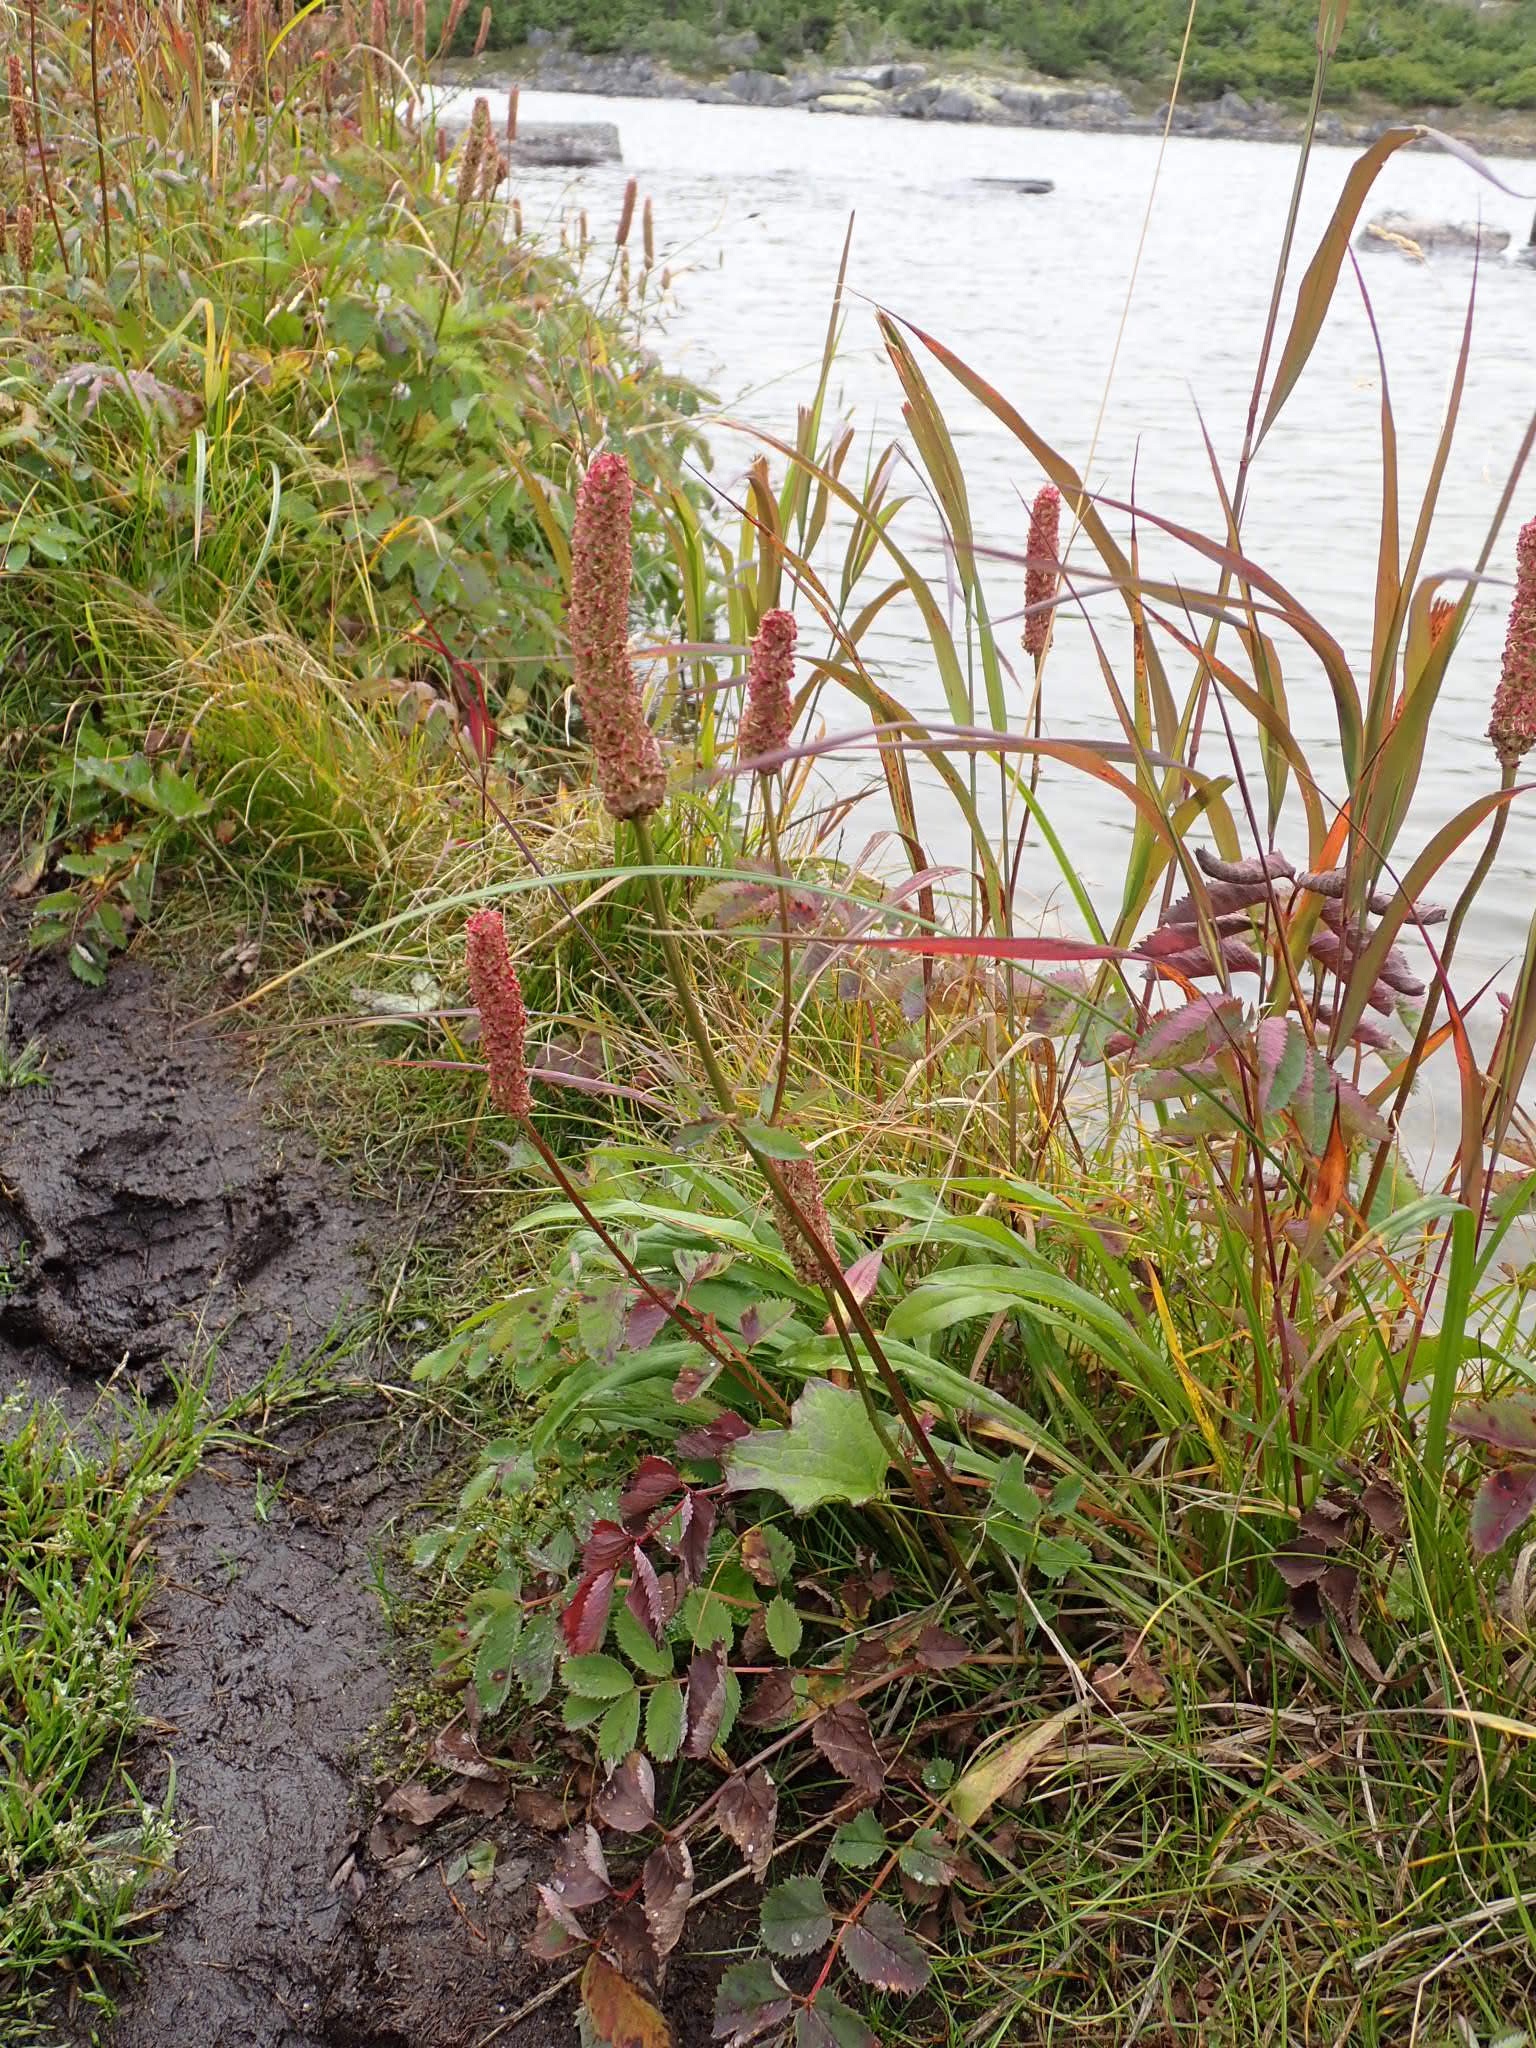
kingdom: Plantae
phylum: Tracheophyta
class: Magnoliopsida
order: Rosales
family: Rosaceae
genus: Sanguisorba
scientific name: Sanguisorba stipulata
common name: Sitka burnet
